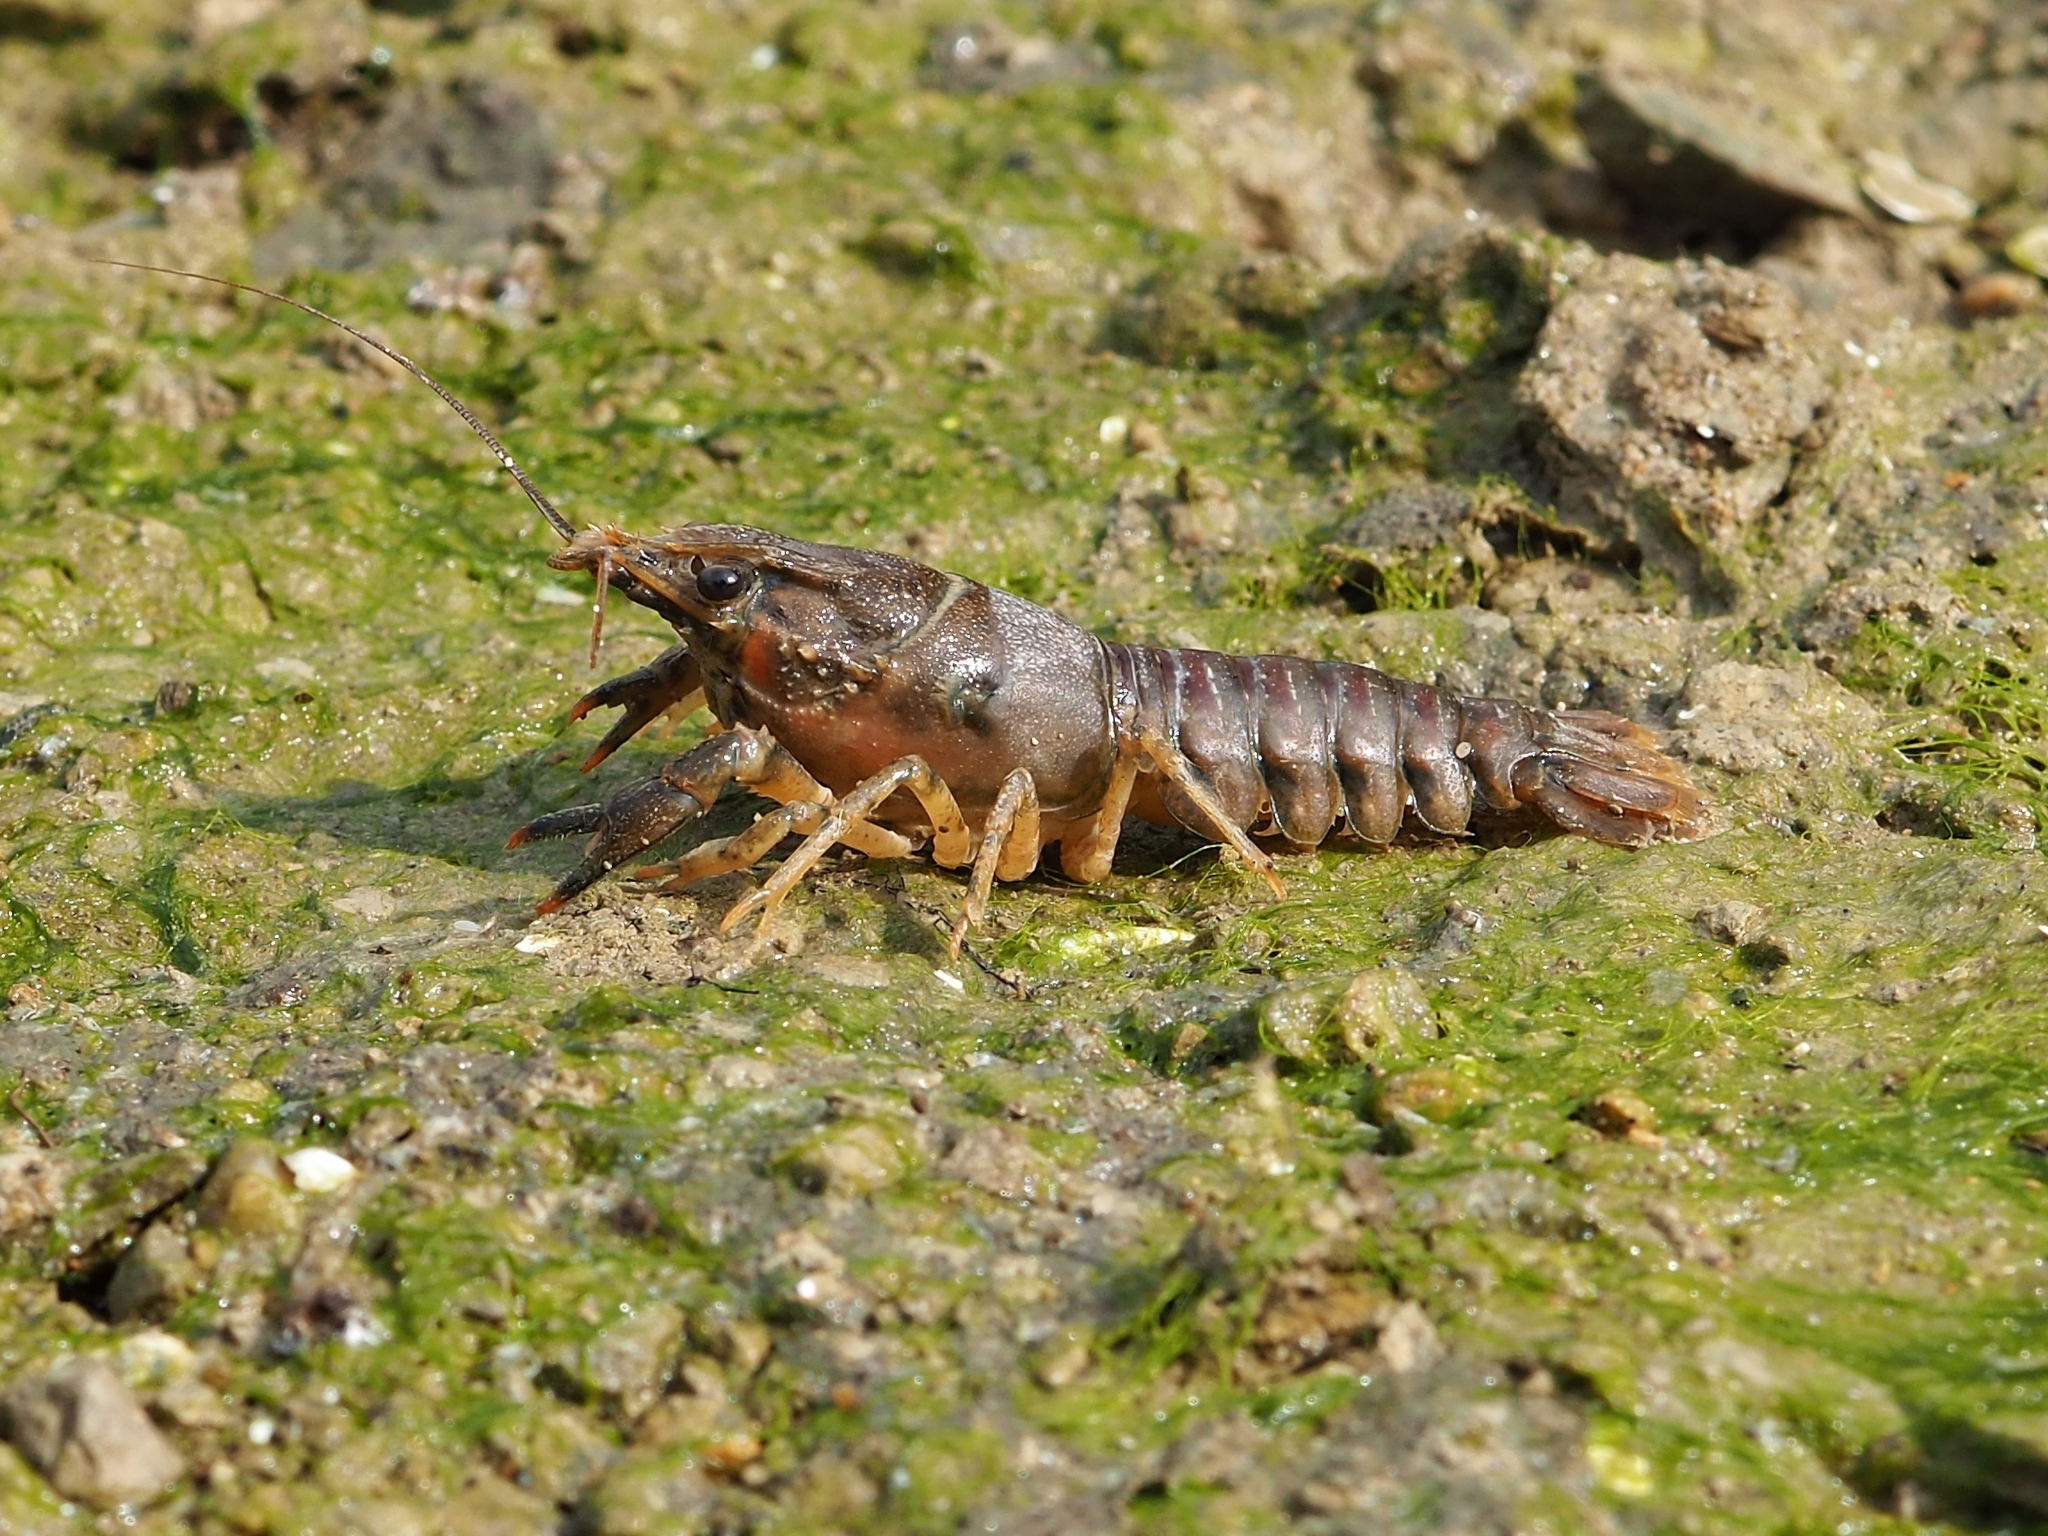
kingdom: Animalia
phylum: Arthropoda
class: Malacostraca
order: Decapoda
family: Cambaridae
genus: Faxonius
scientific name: Faxonius limosus
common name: American crayfish
